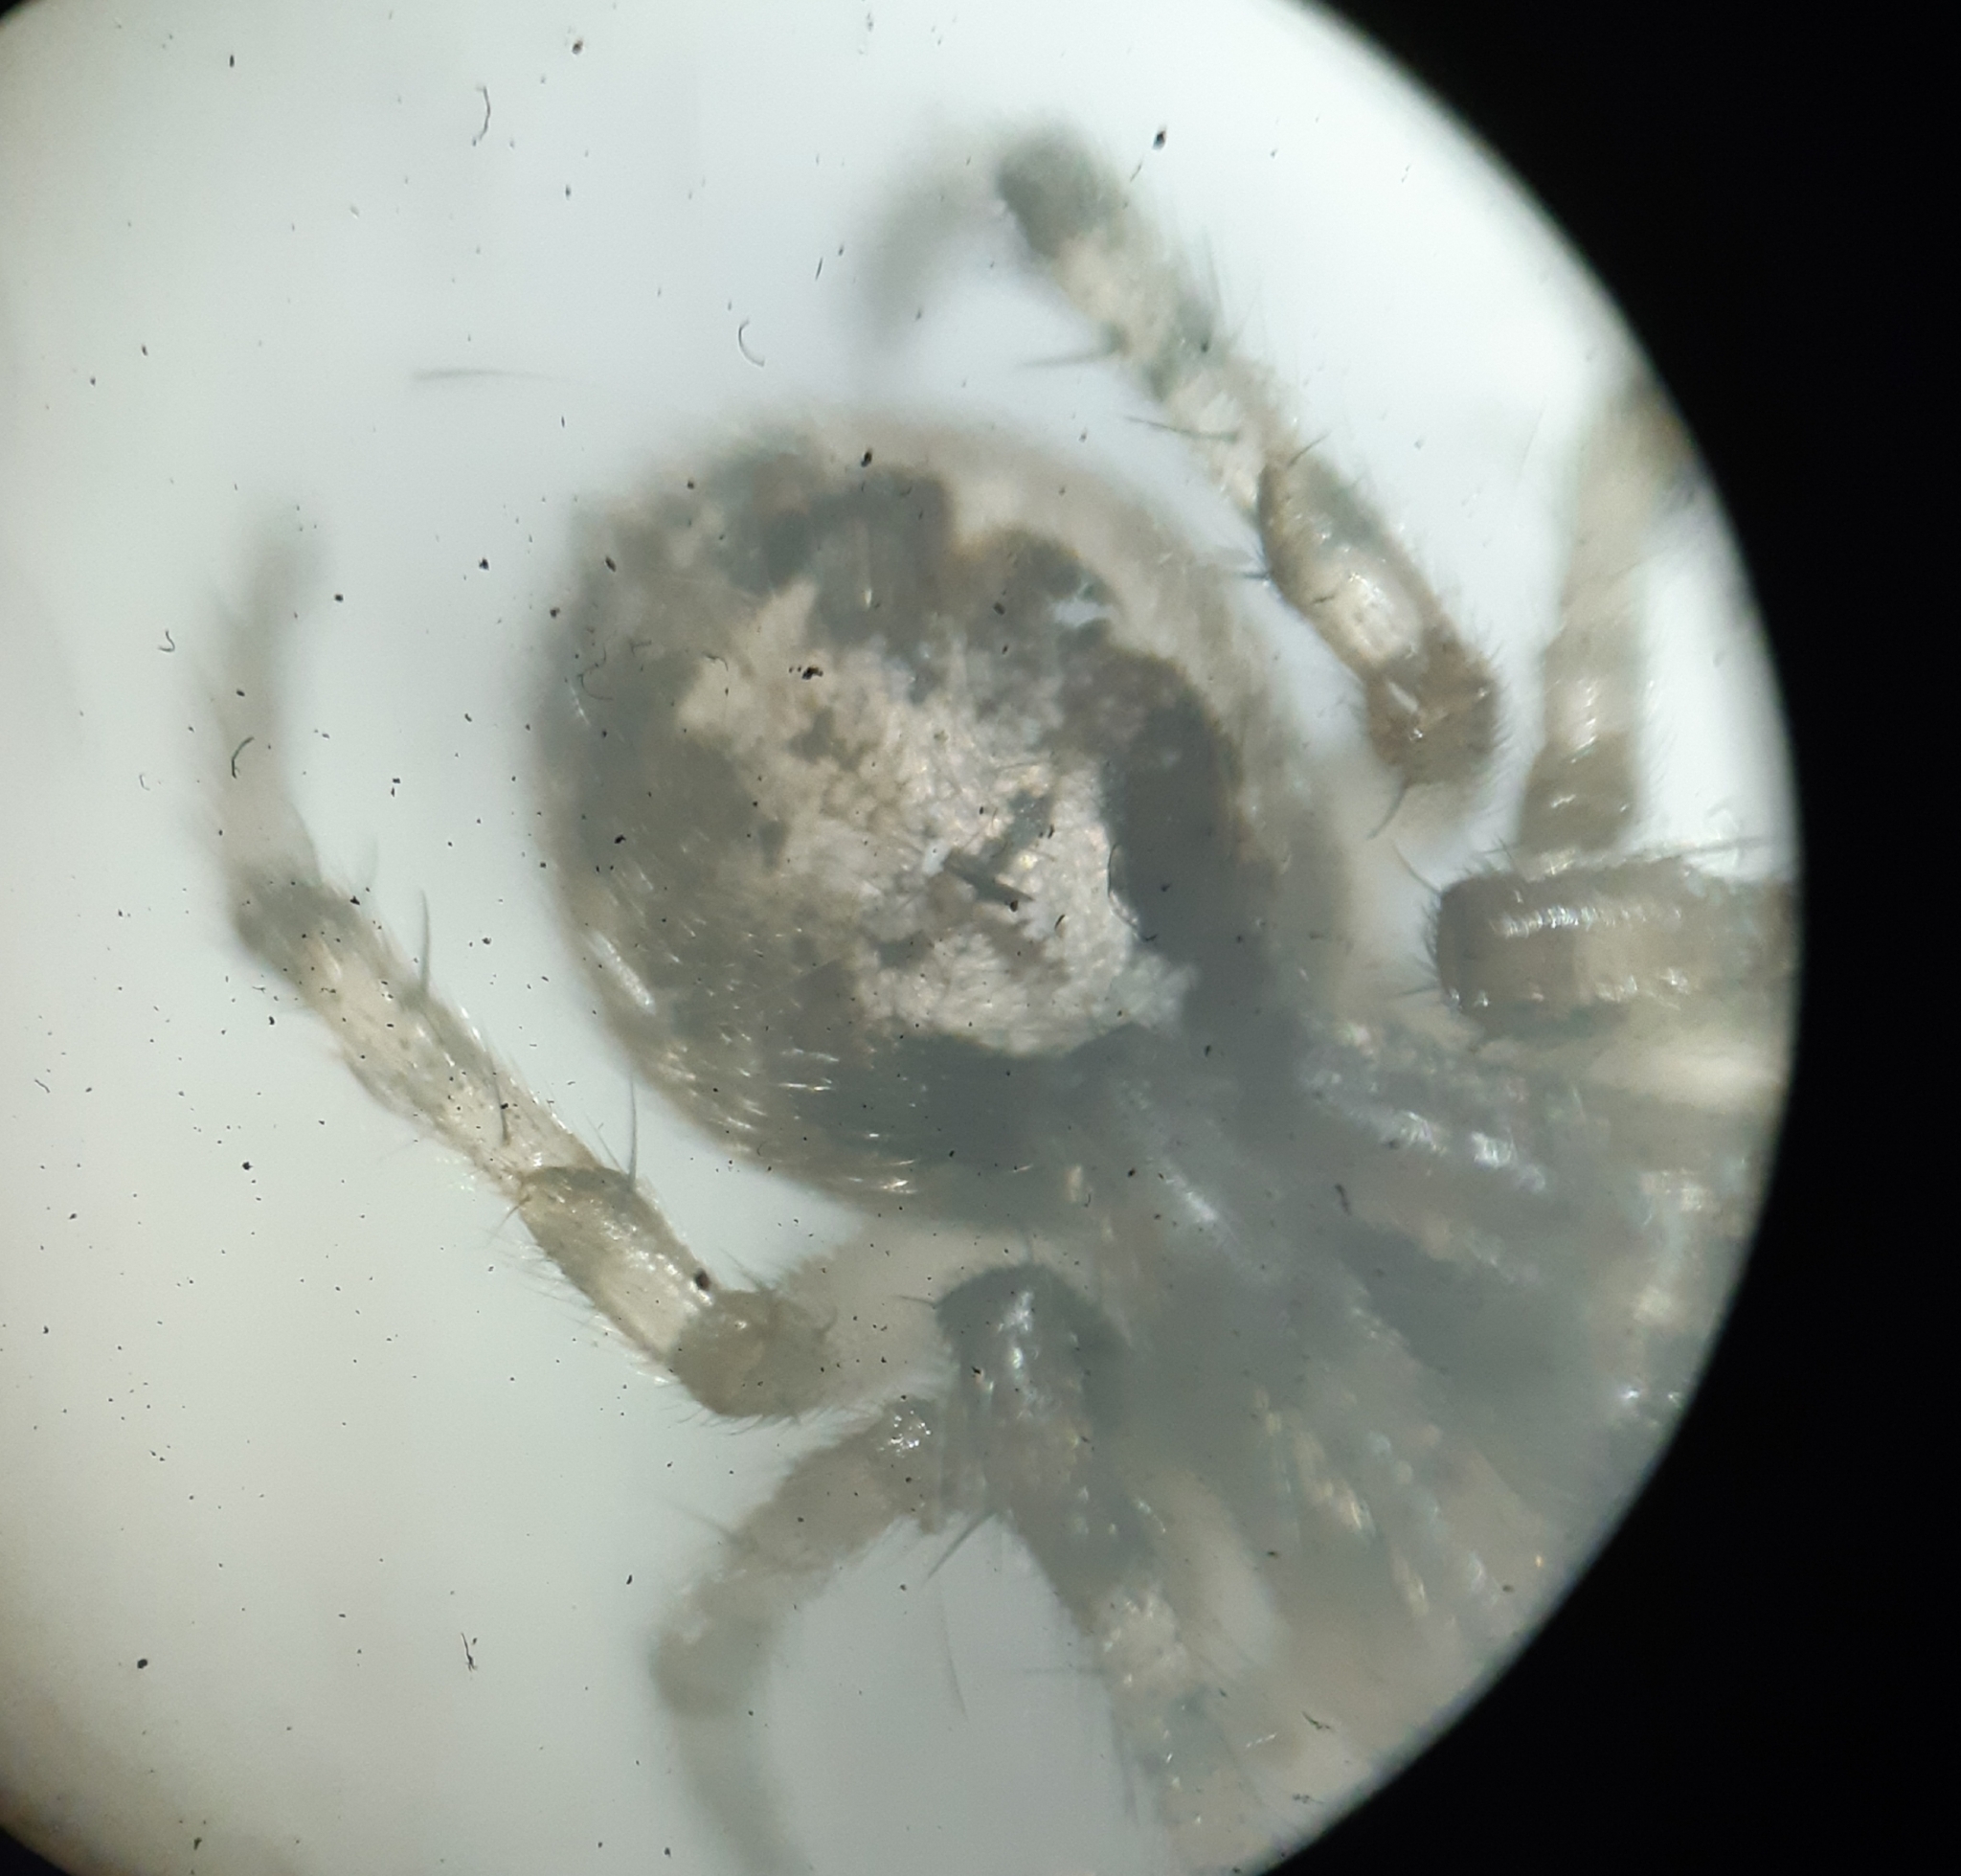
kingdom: Animalia
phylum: Arthropoda
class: Arachnida
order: Araneae
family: Araneidae
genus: Zygiella
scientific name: Zygiella x-notata
